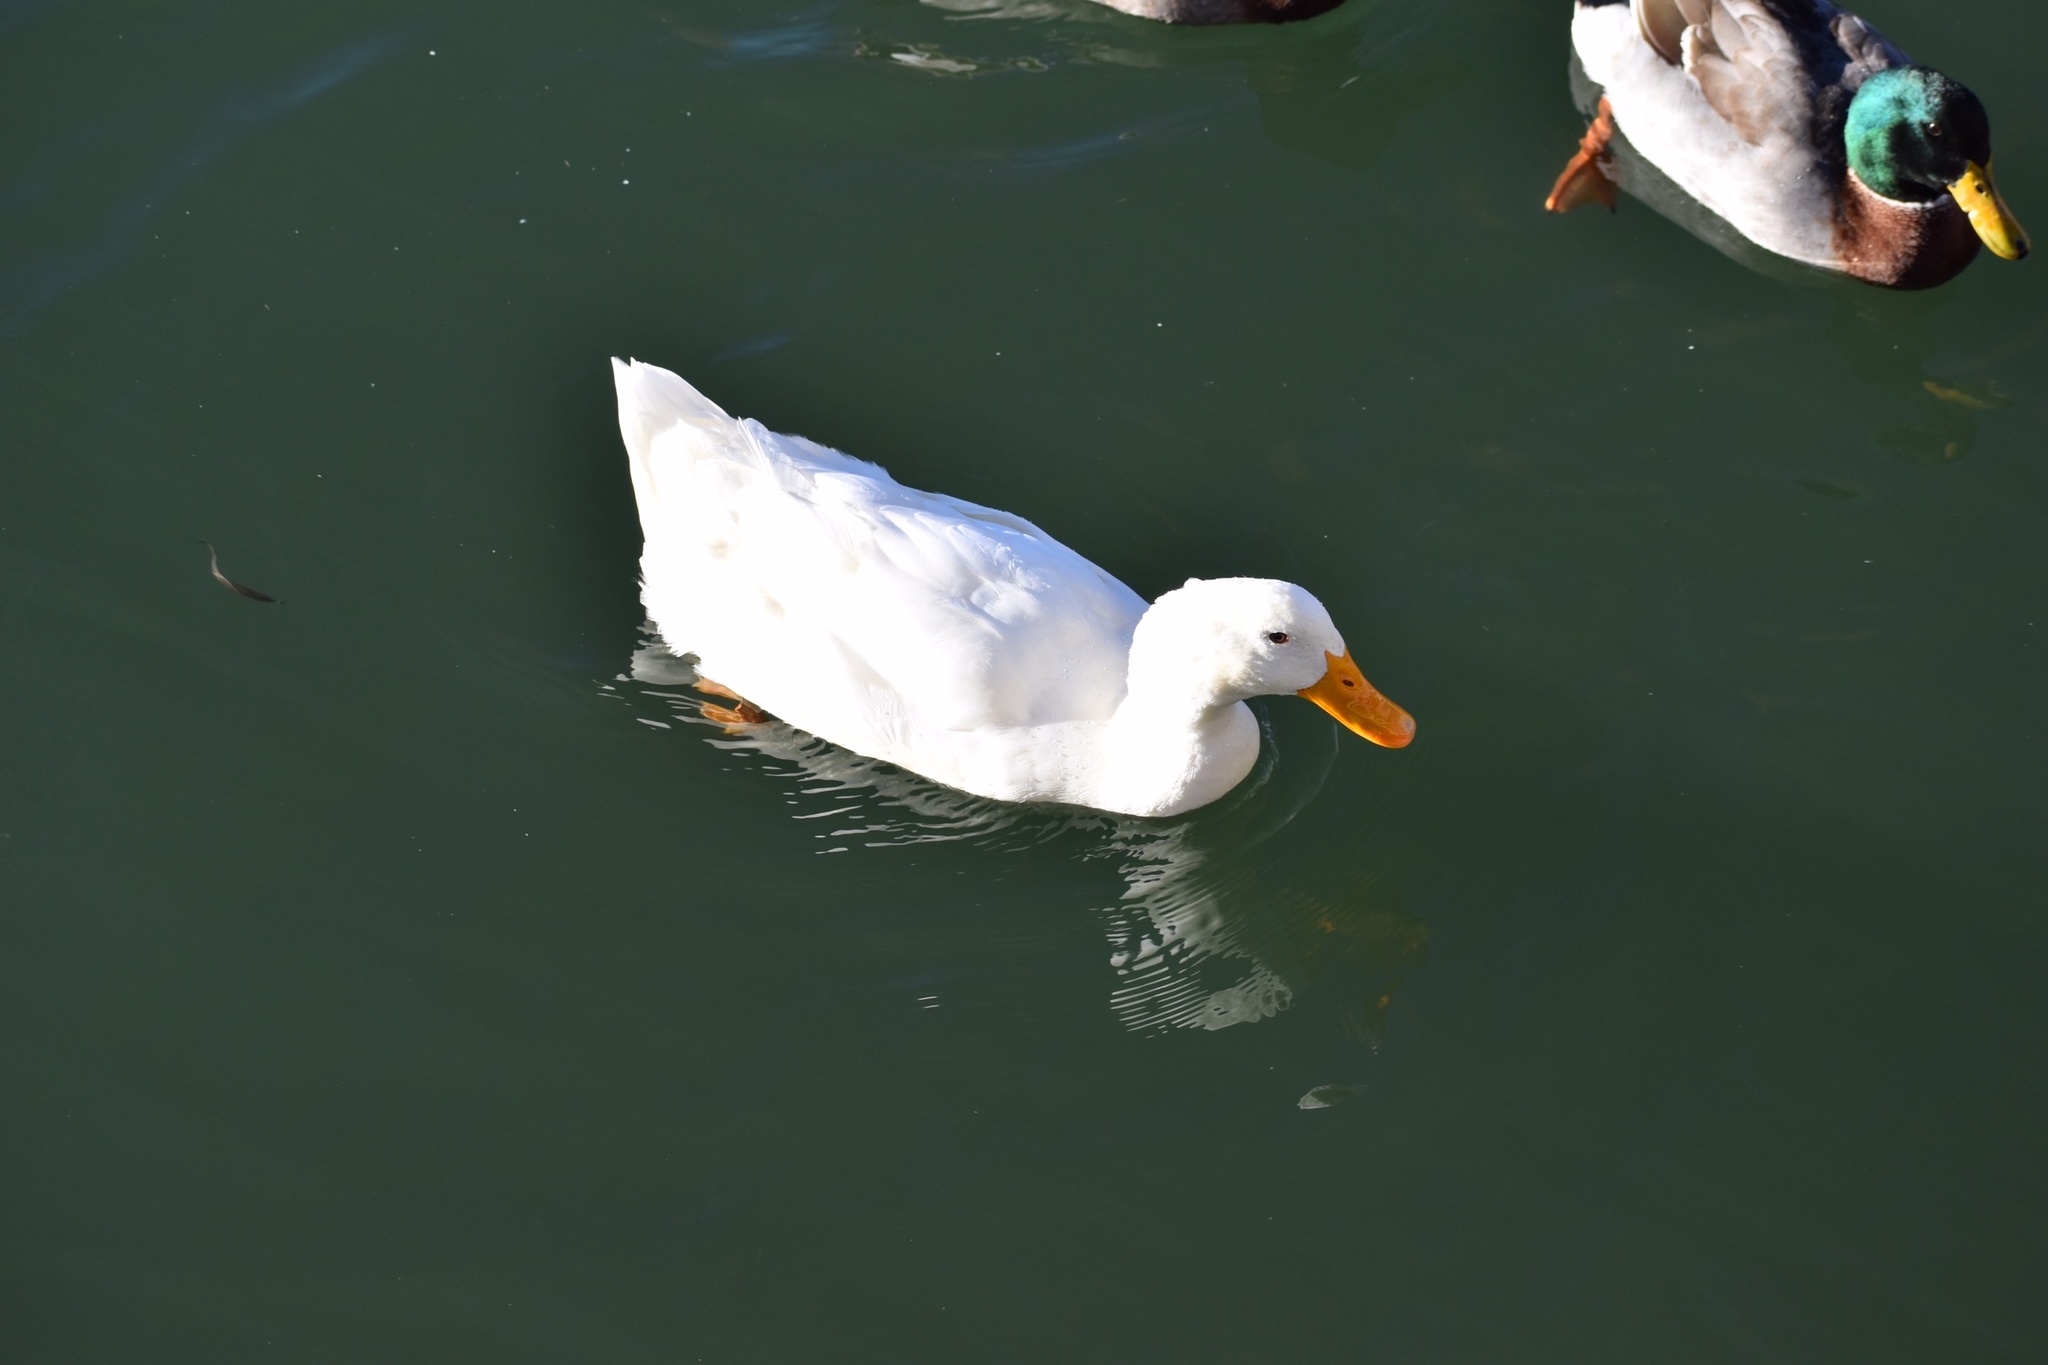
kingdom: Animalia
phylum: Chordata
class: Aves
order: Anseriformes
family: Anatidae
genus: Anas
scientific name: Anas platyrhynchos
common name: Mallard
